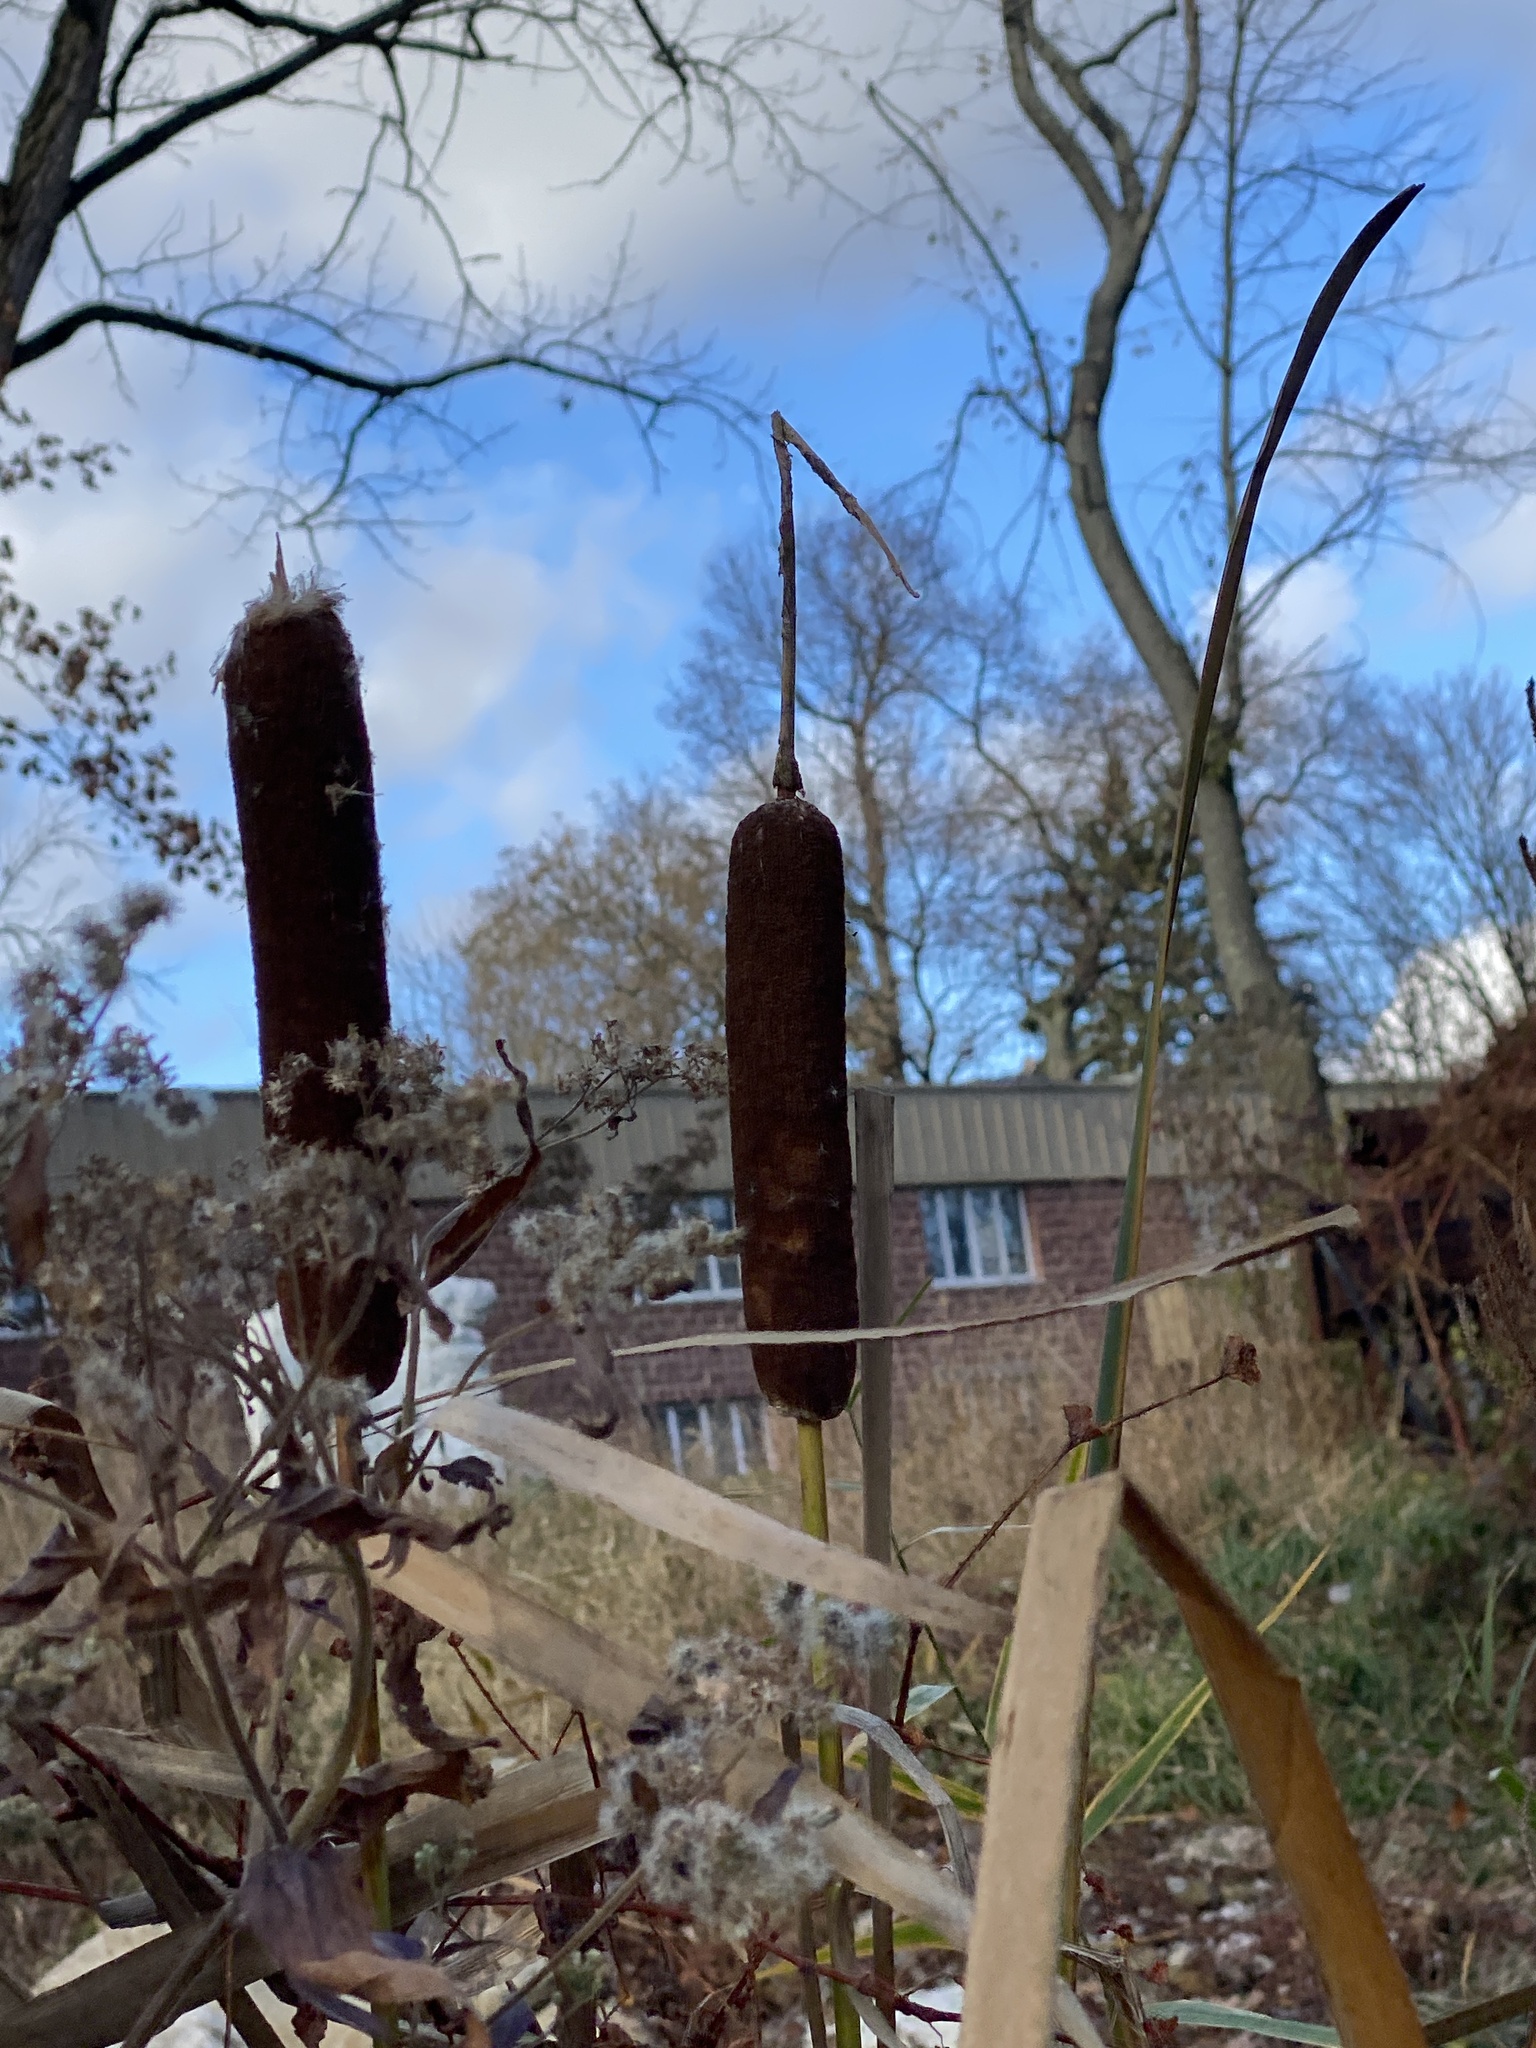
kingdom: Plantae
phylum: Tracheophyta
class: Liliopsida
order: Poales
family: Typhaceae
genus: Typha
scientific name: Typha
